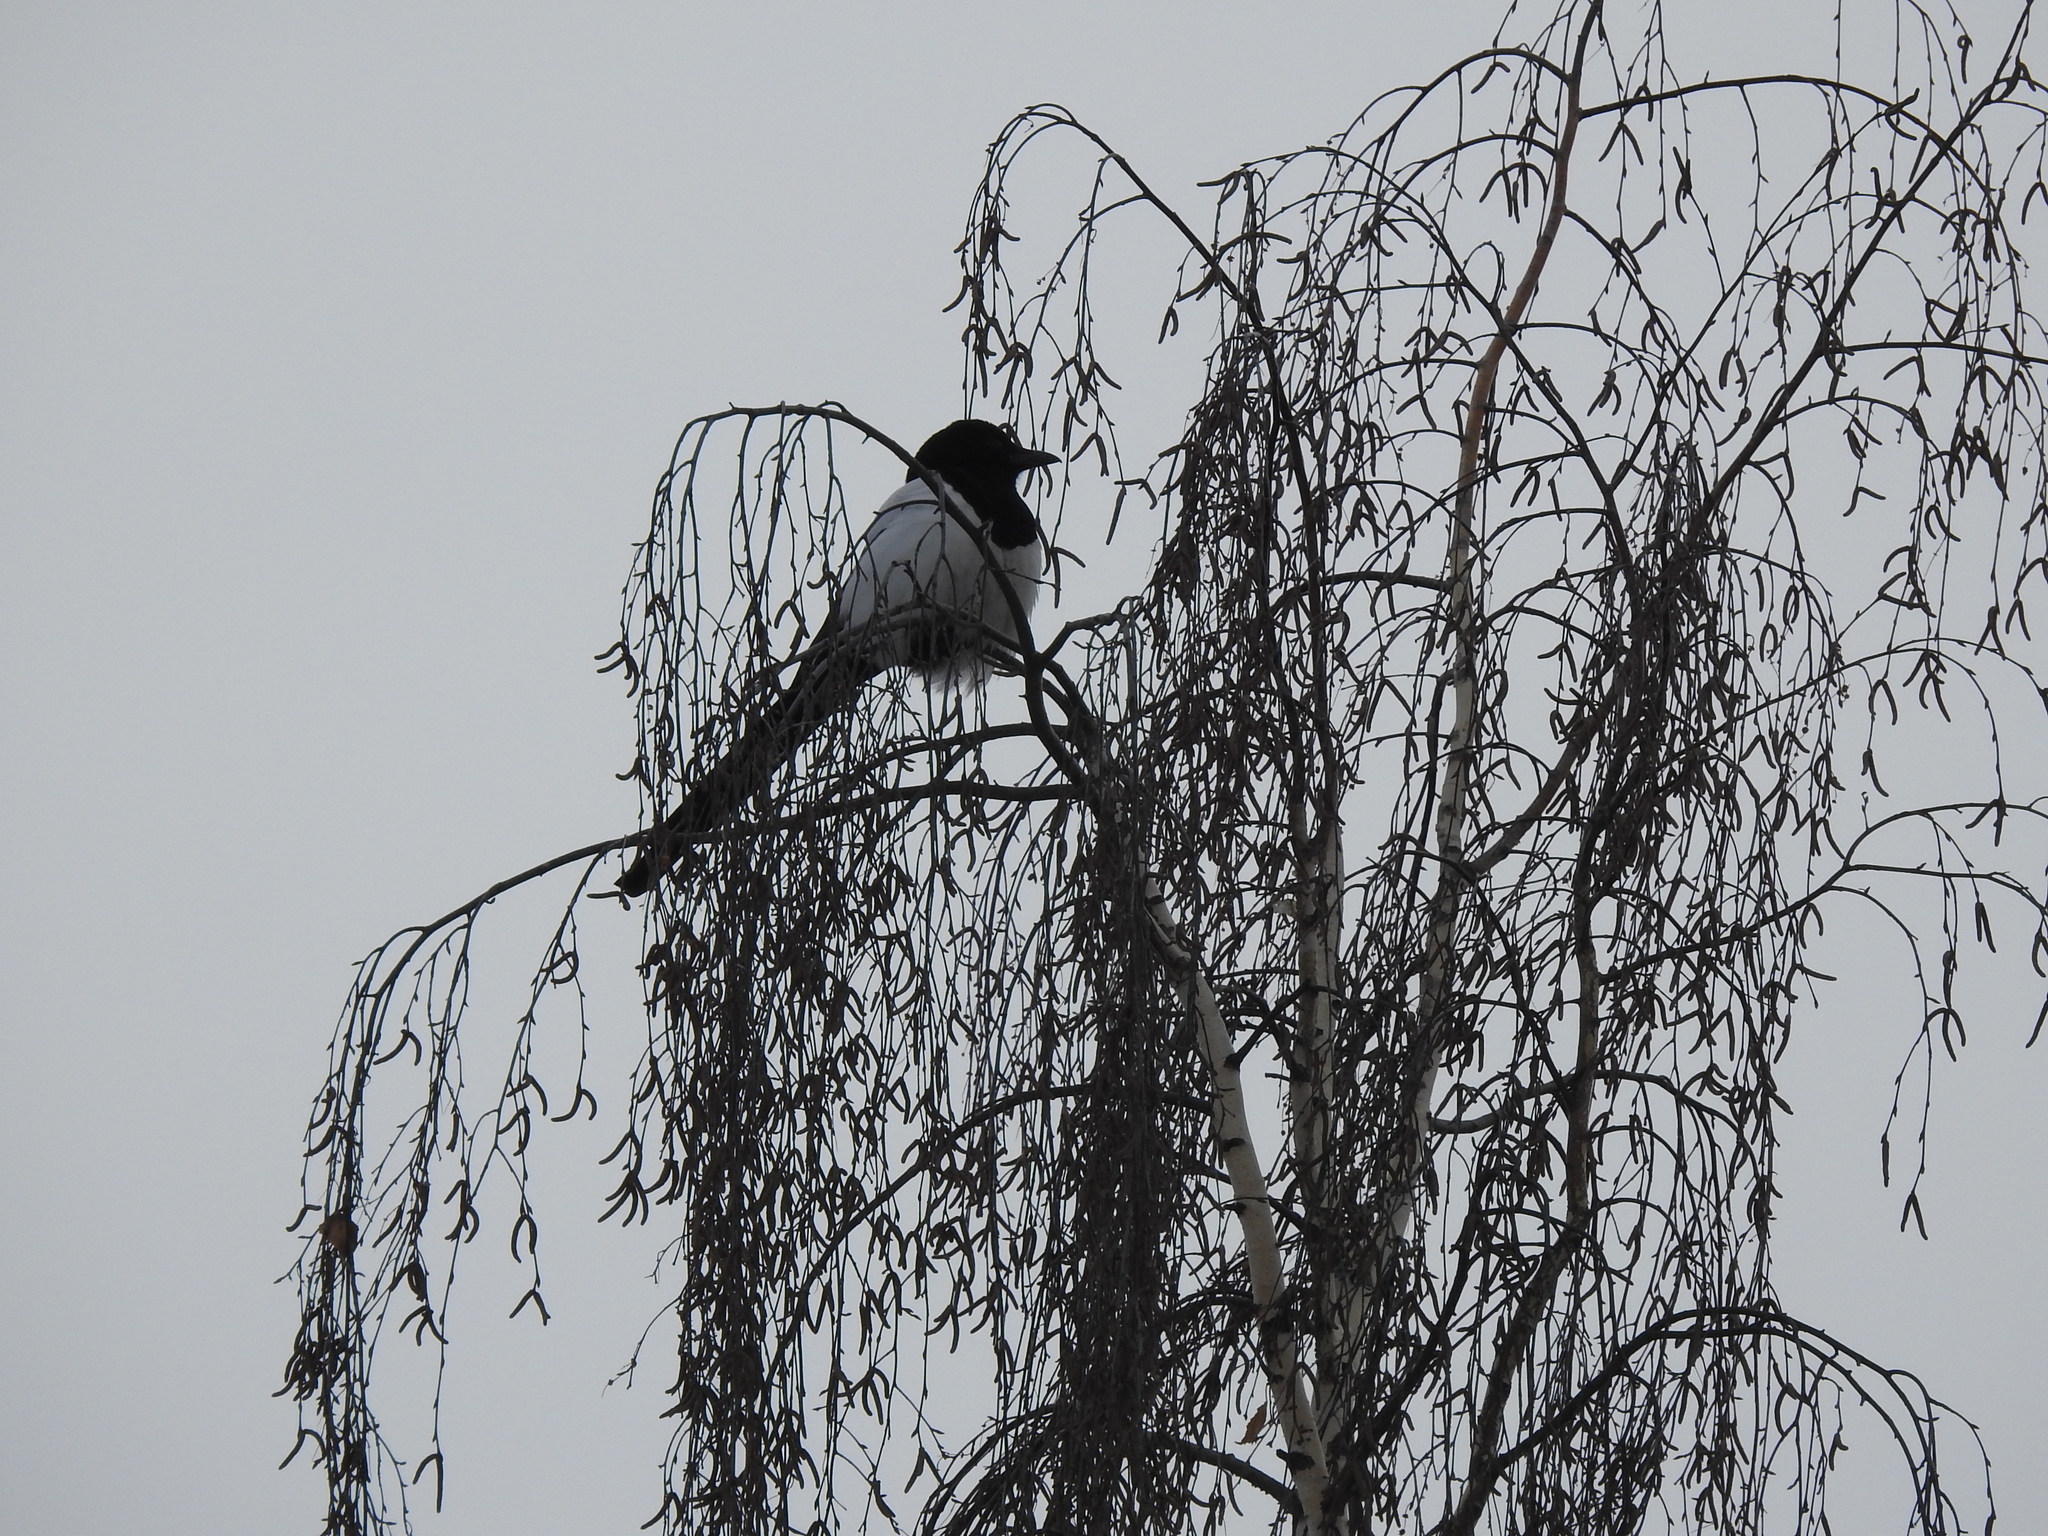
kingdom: Animalia
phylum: Chordata
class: Aves
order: Passeriformes
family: Corvidae
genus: Pica
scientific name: Pica pica
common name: Eurasian magpie
